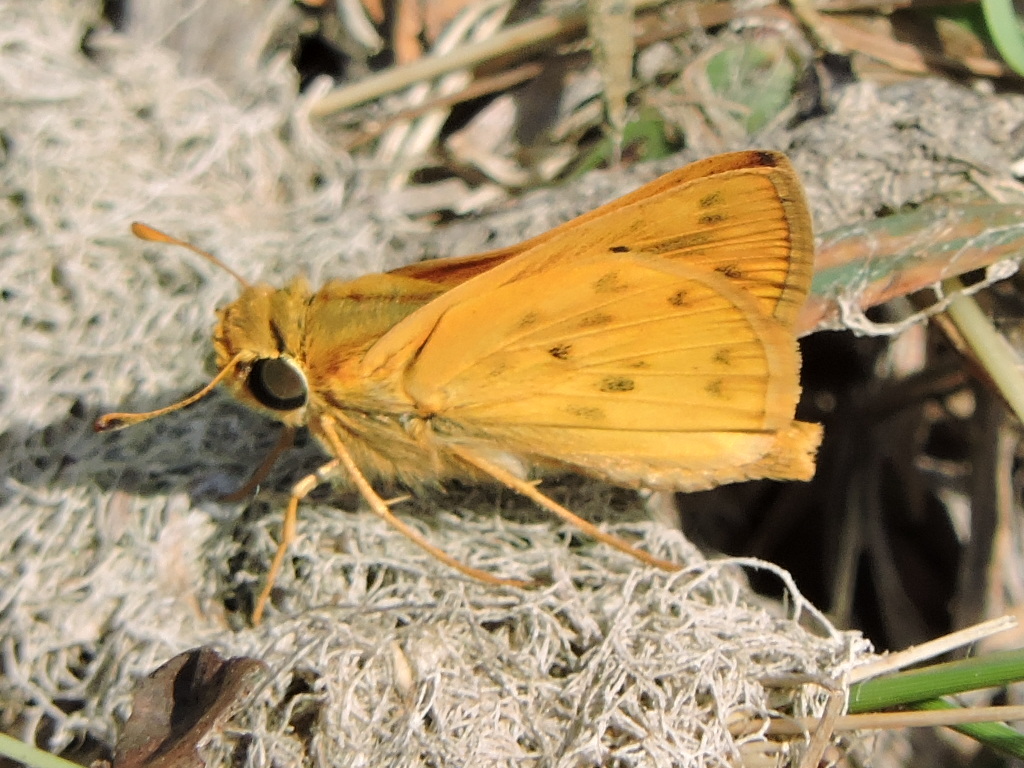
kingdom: Animalia
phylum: Arthropoda
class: Insecta
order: Lepidoptera
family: Hesperiidae
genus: Hylephila
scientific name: Hylephila phyleus
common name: Fiery skipper
